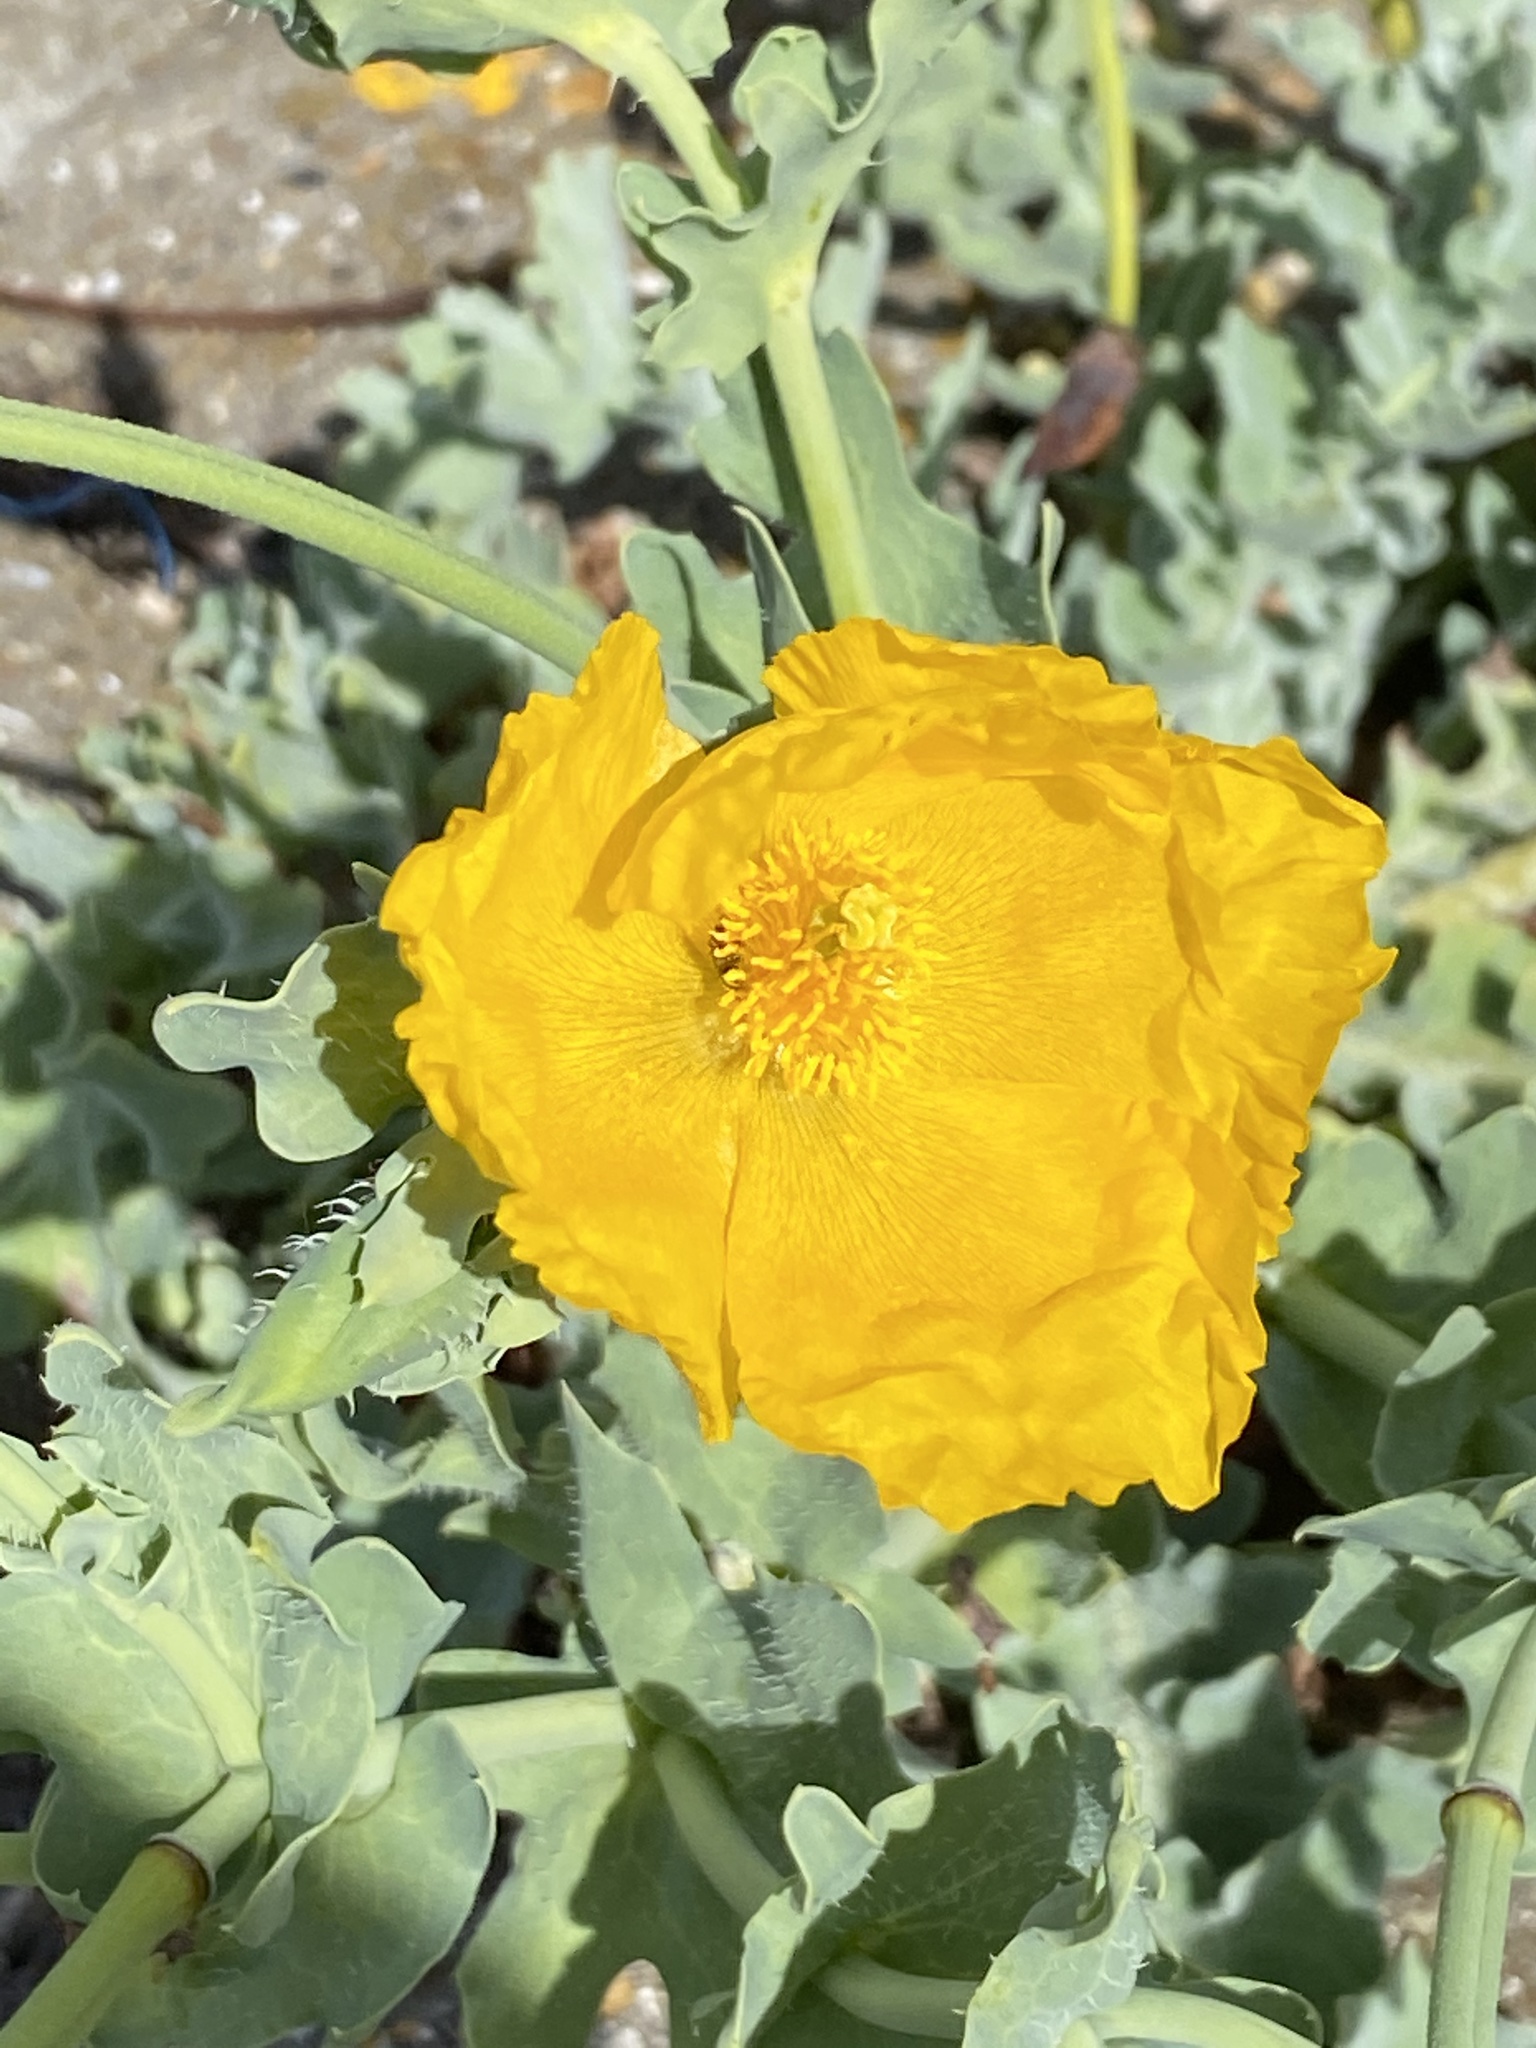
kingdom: Plantae
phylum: Tracheophyta
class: Magnoliopsida
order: Ranunculales
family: Papaveraceae
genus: Glaucium
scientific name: Glaucium flavum
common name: Yellow horned-poppy
